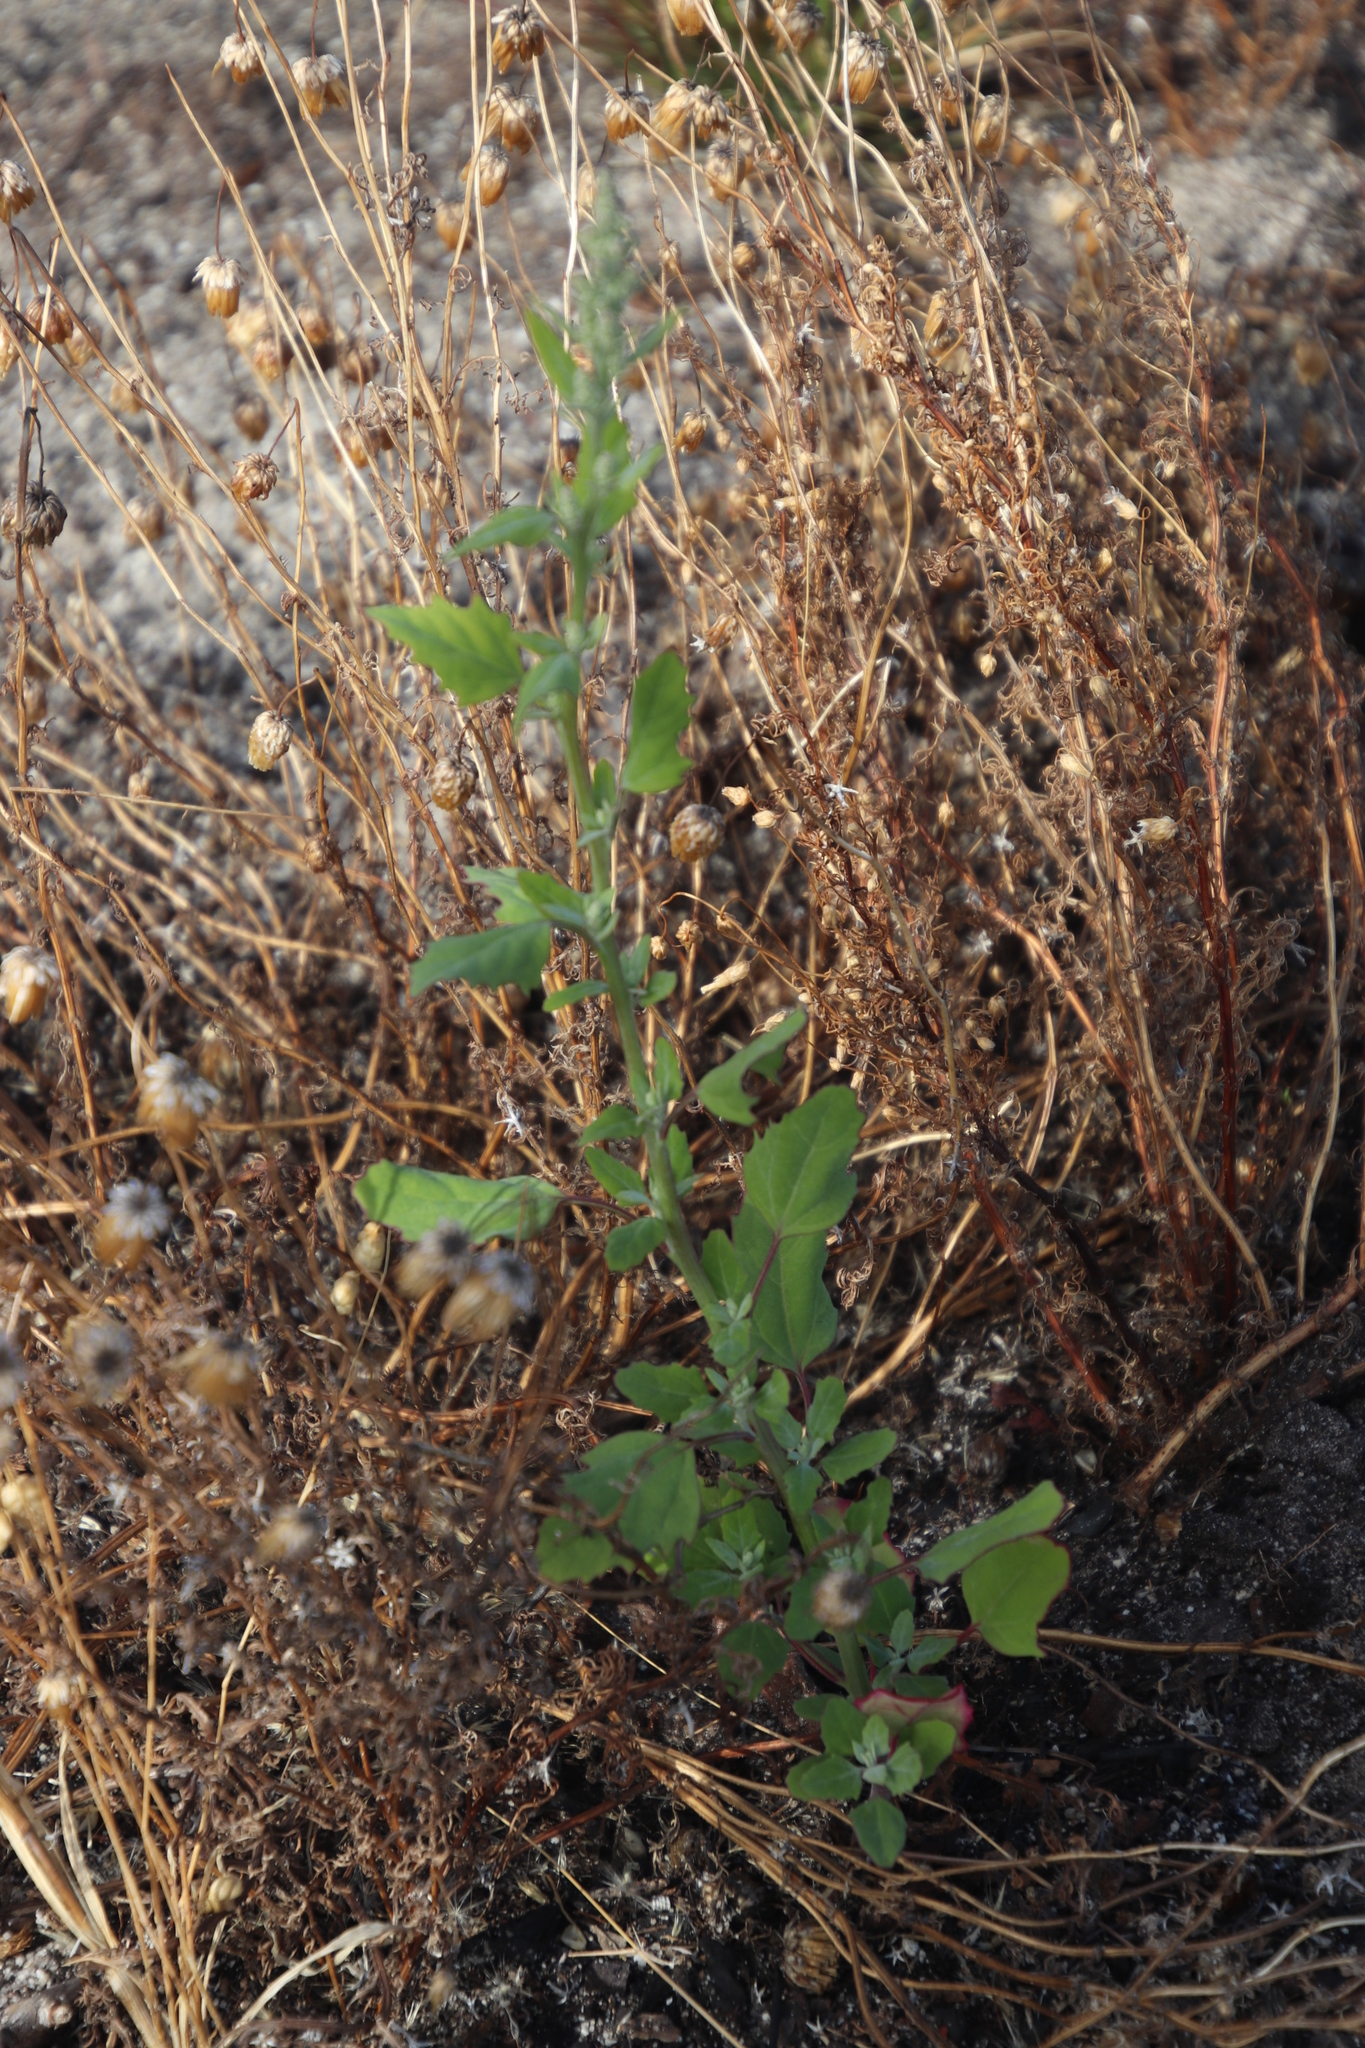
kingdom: Plantae
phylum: Tracheophyta
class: Magnoliopsida
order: Caryophyllales
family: Amaranthaceae
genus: Chenopodium
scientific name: Chenopodium album
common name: Fat-hen
